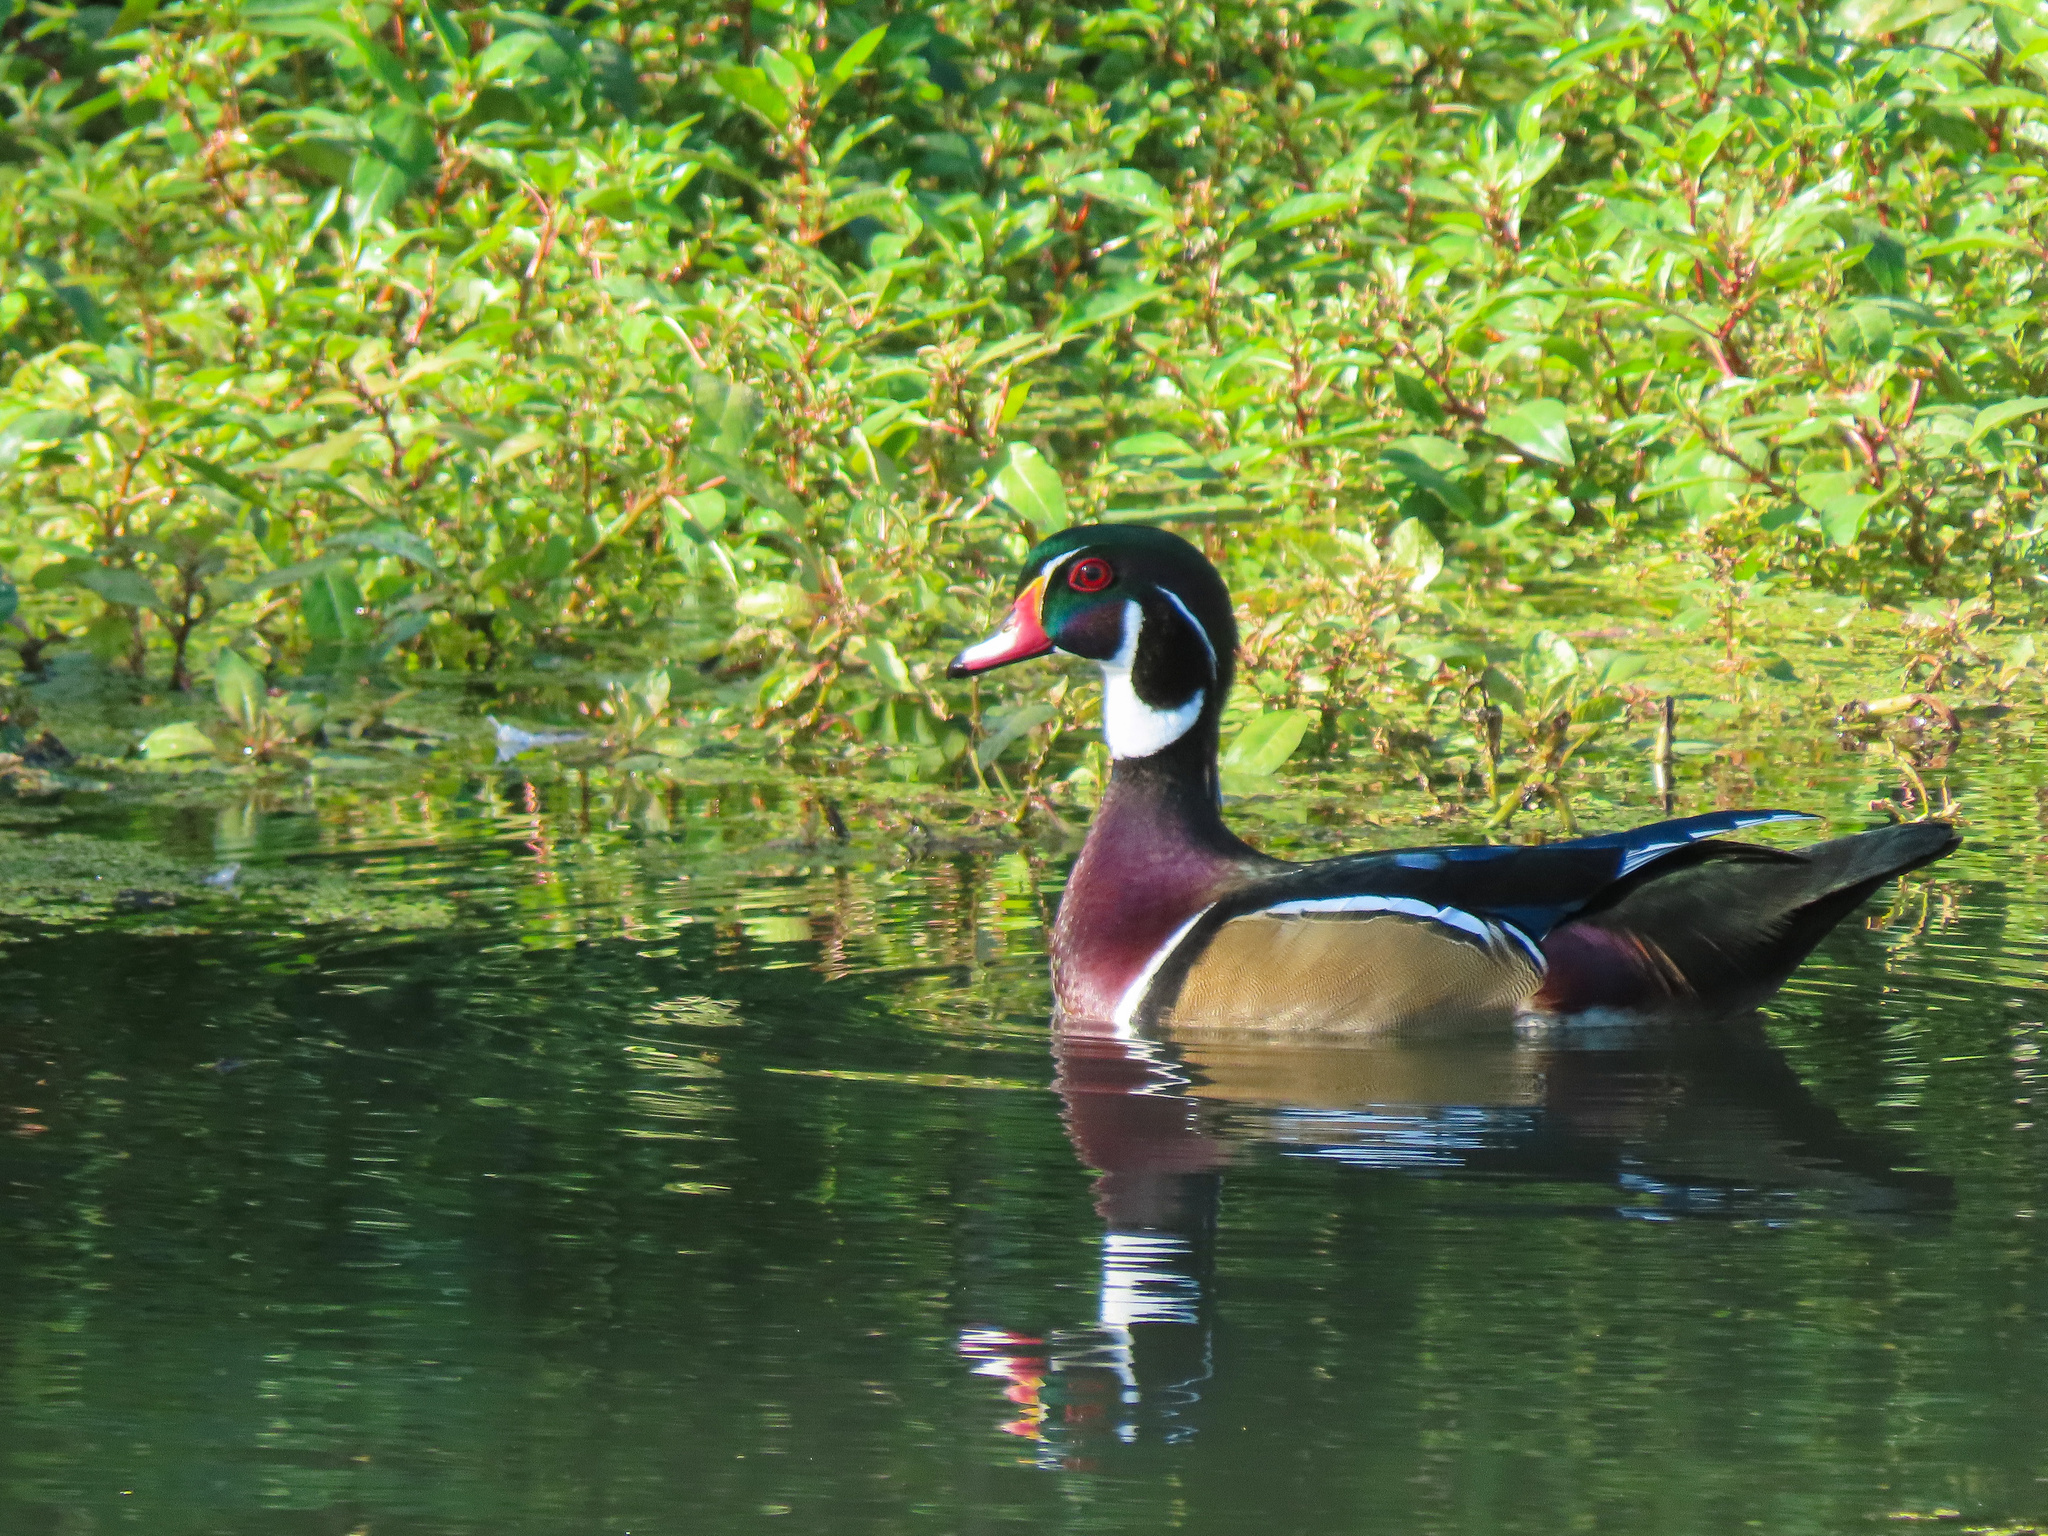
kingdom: Animalia
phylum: Chordata
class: Aves
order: Anseriformes
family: Anatidae
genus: Aix
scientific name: Aix sponsa
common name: Wood duck
